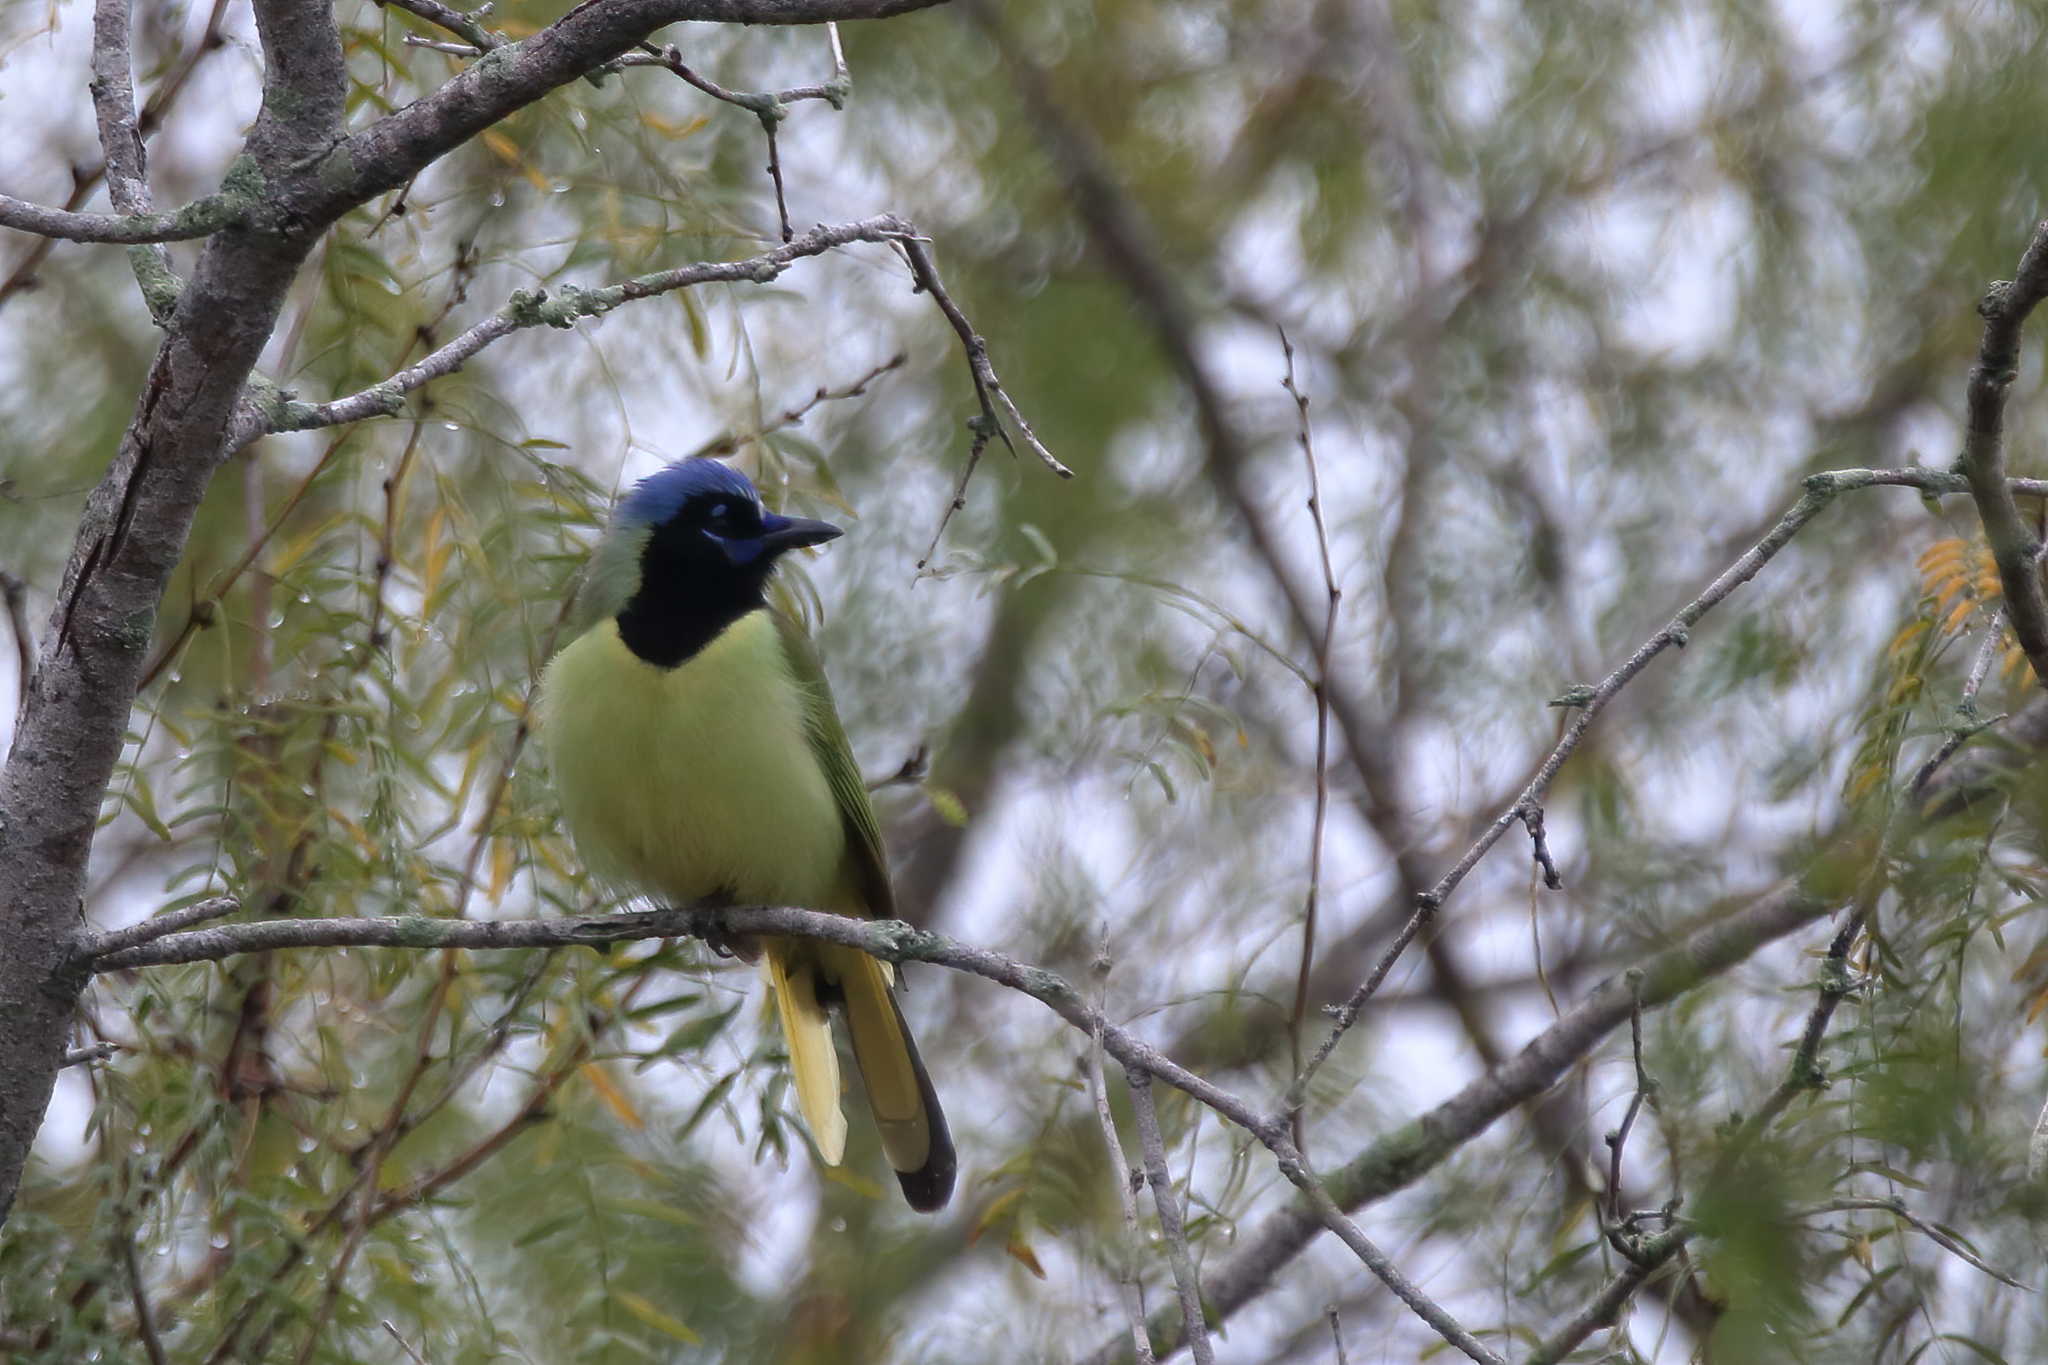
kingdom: Animalia
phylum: Chordata
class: Aves
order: Passeriformes
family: Corvidae
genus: Cyanocorax
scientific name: Cyanocorax yncas
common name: Green jay
